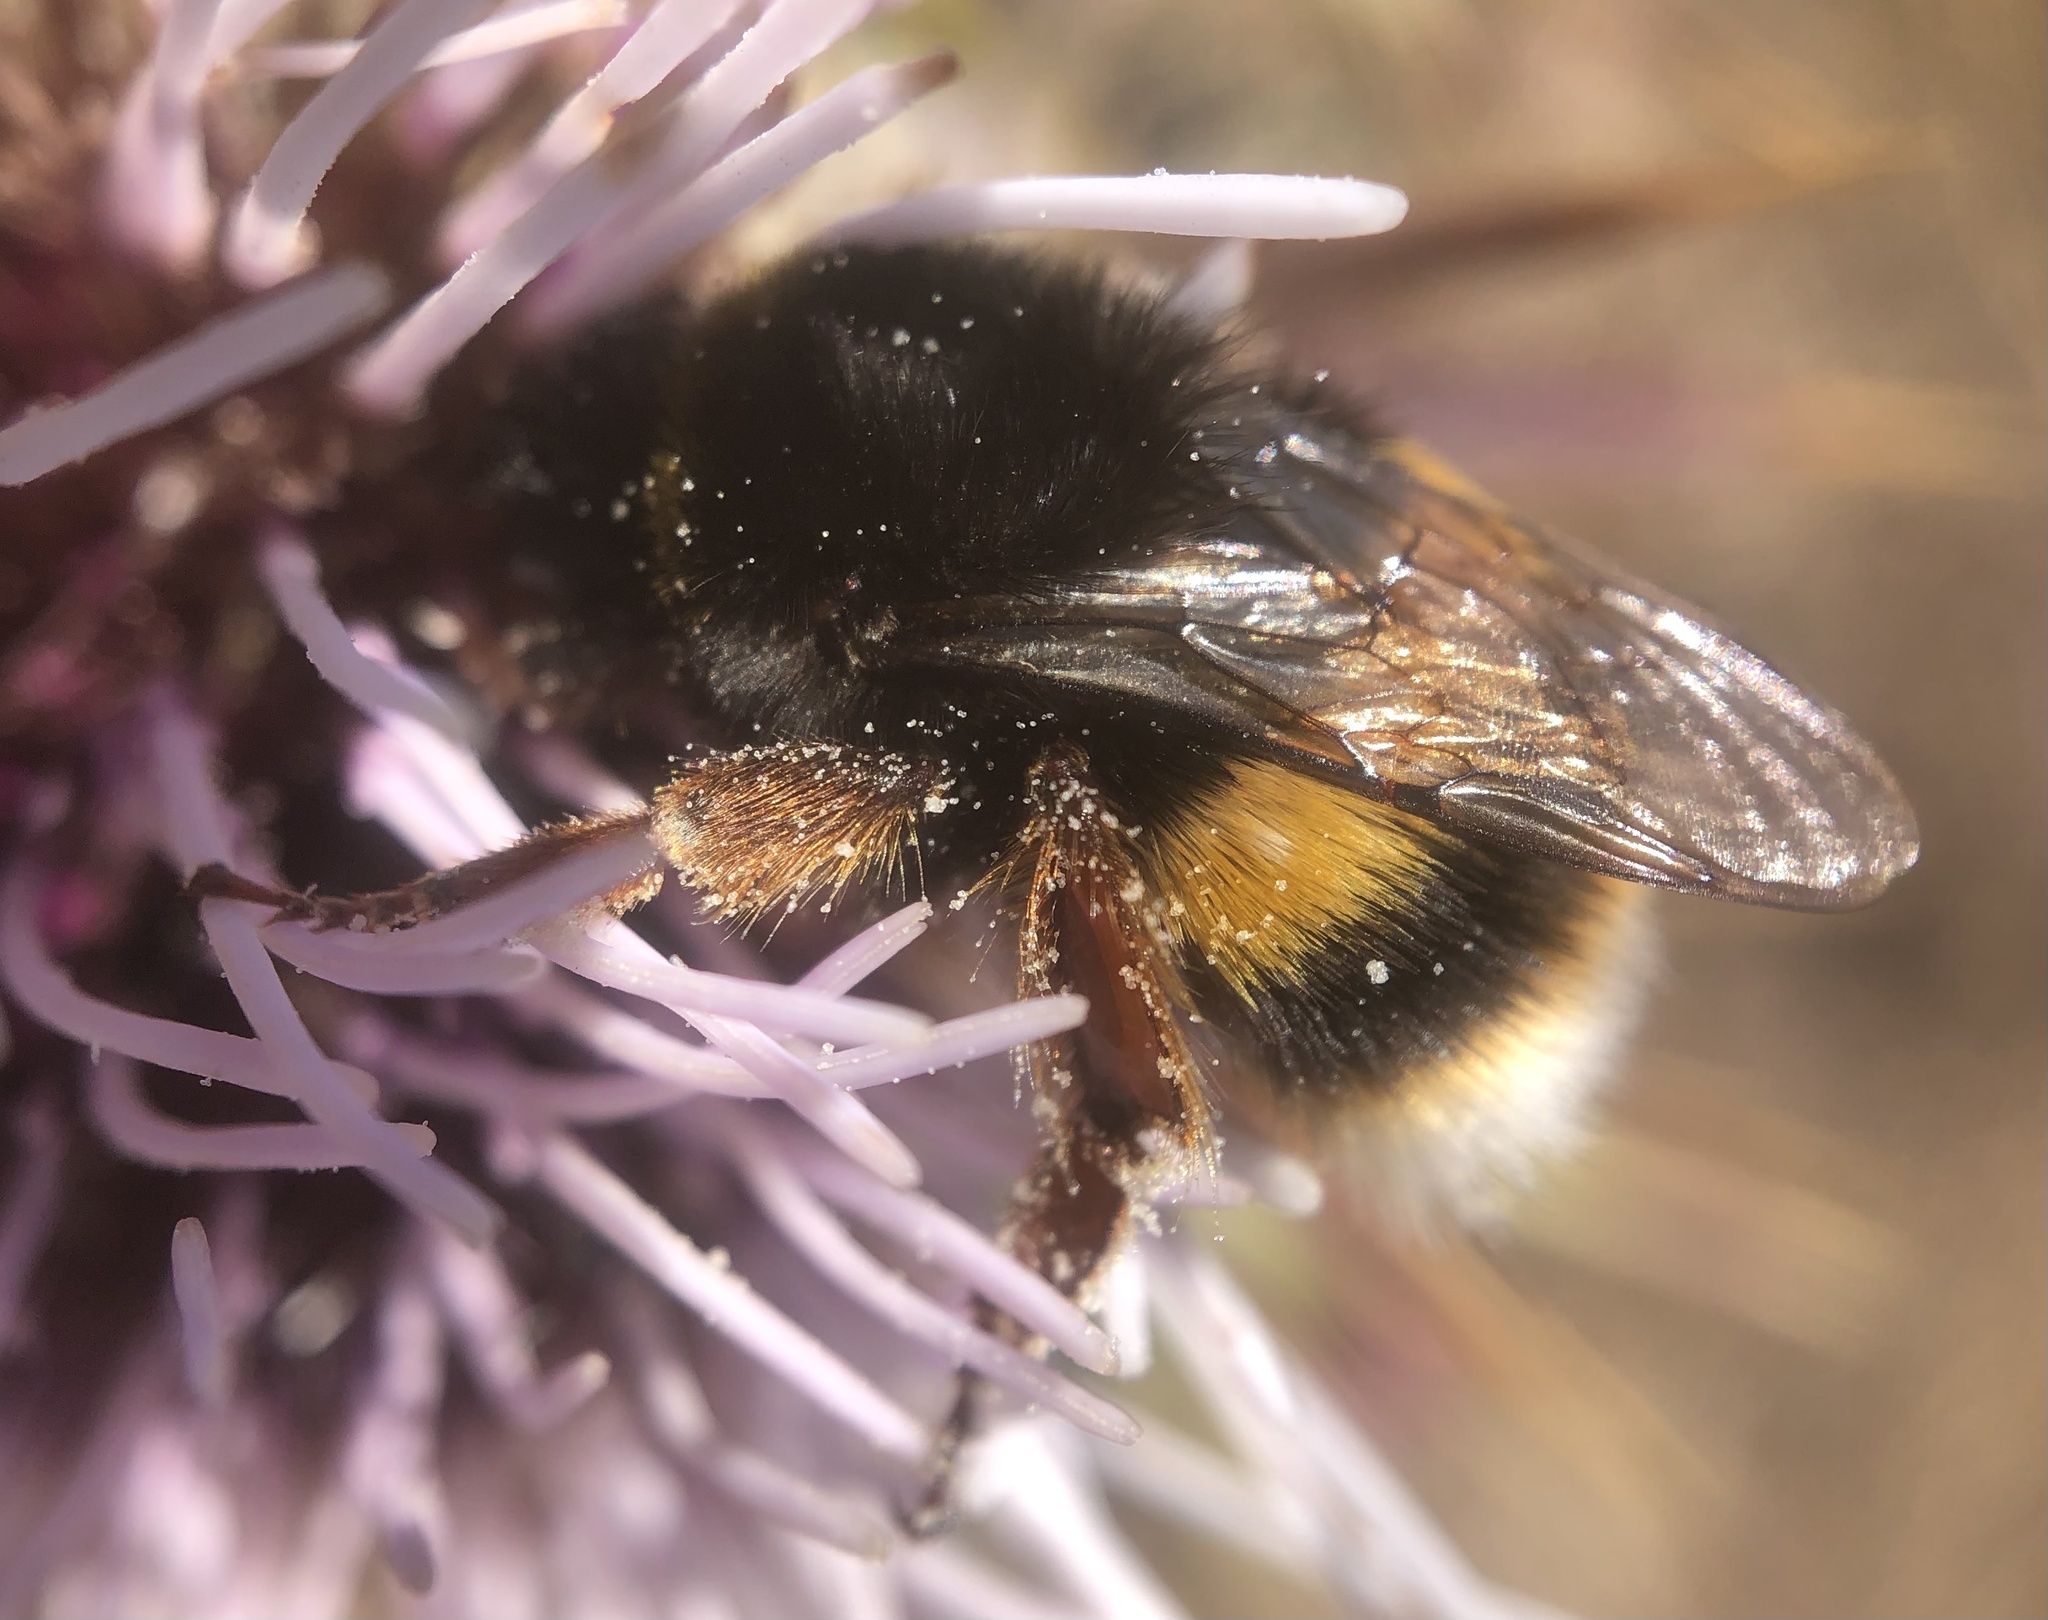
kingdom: Animalia
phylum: Arthropoda
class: Insecta
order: Hymenoptera
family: Apidae
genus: Bombus
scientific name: Bombus terrestris
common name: Buff-tailed bumblebee
